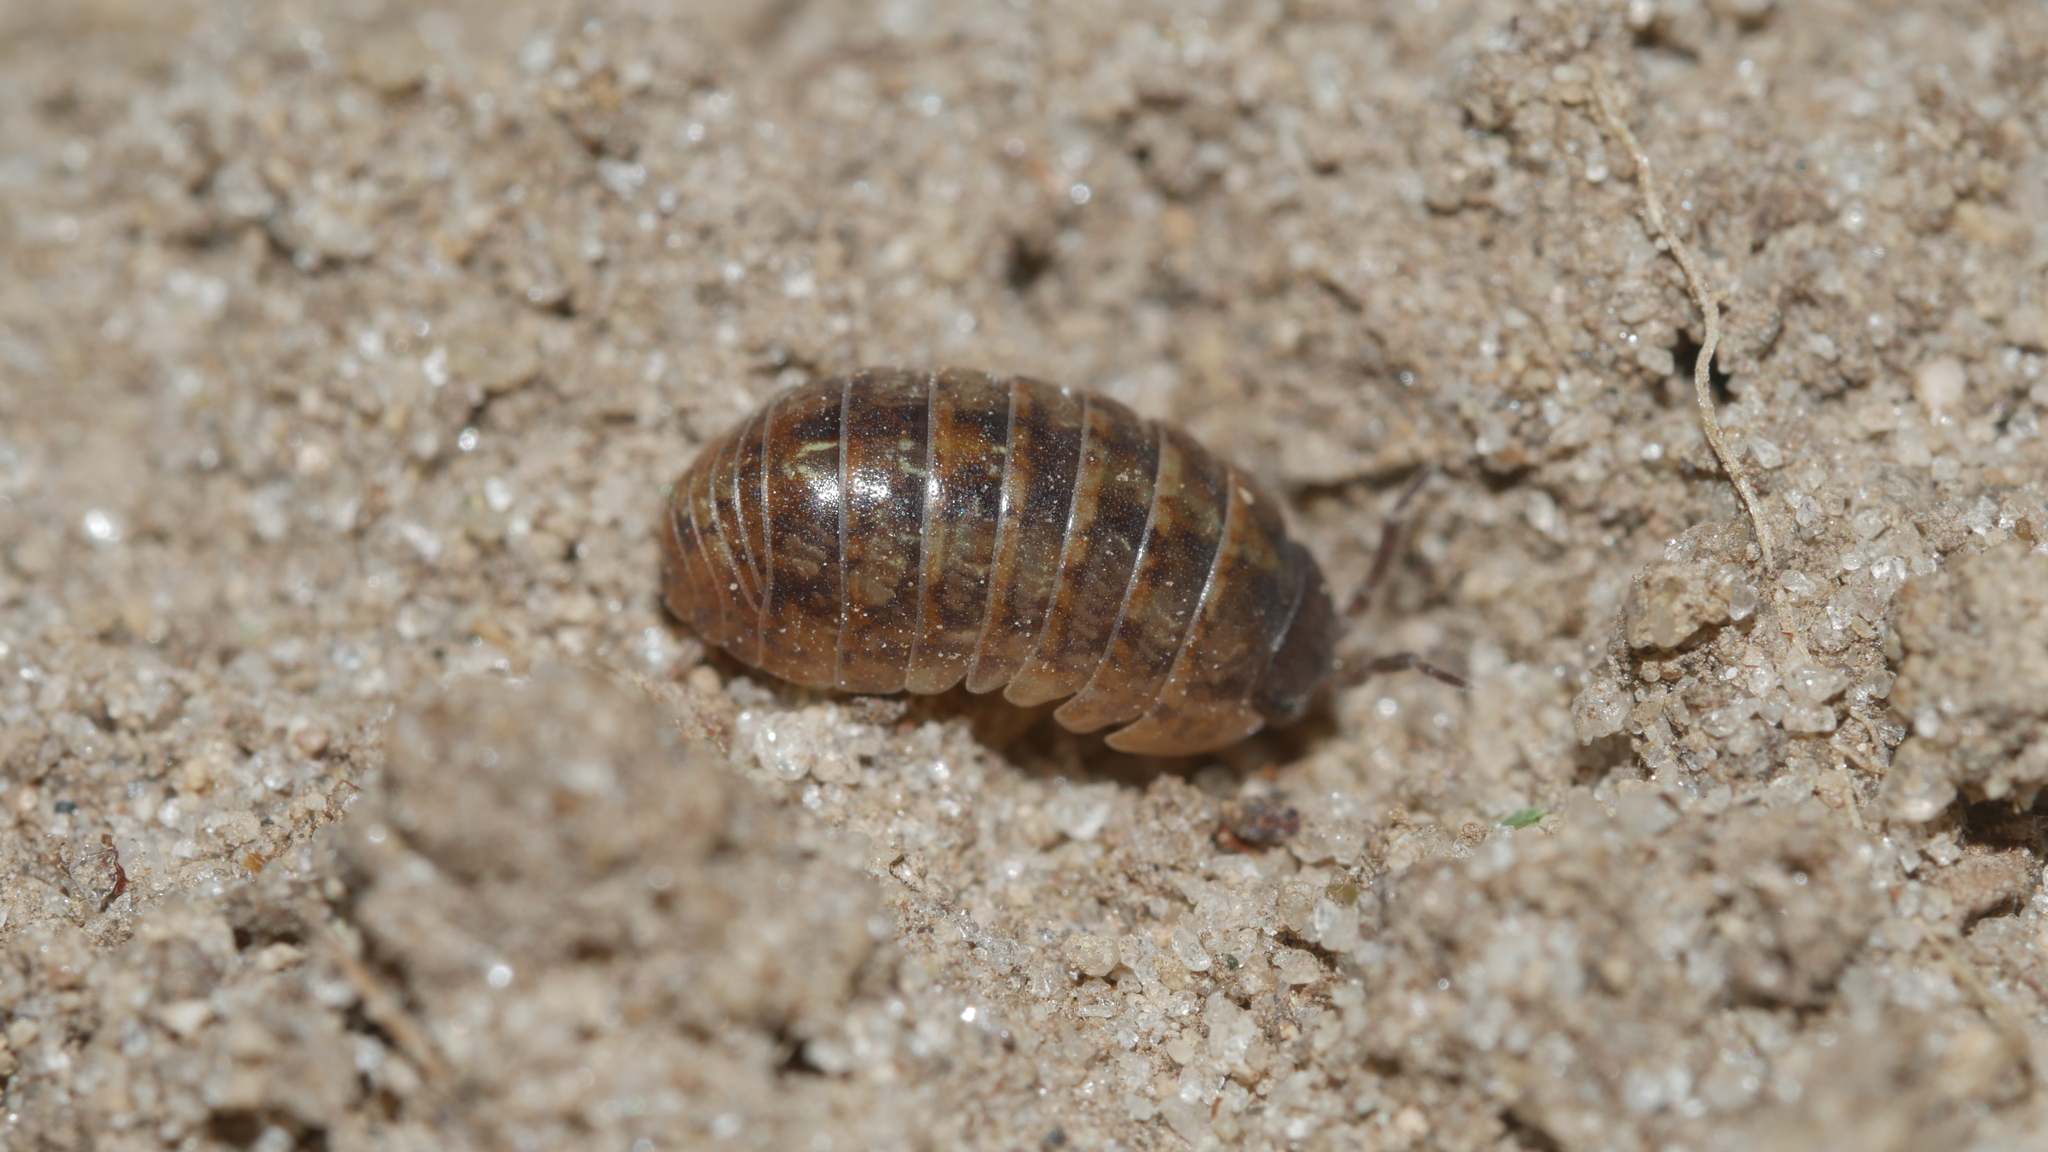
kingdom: Animalia
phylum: Arthropoda
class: Malacostraca
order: Isopoda
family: Armadillidiidae
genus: Armadillidium
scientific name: Armadillidium vulgare
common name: Common pill woodlouse
